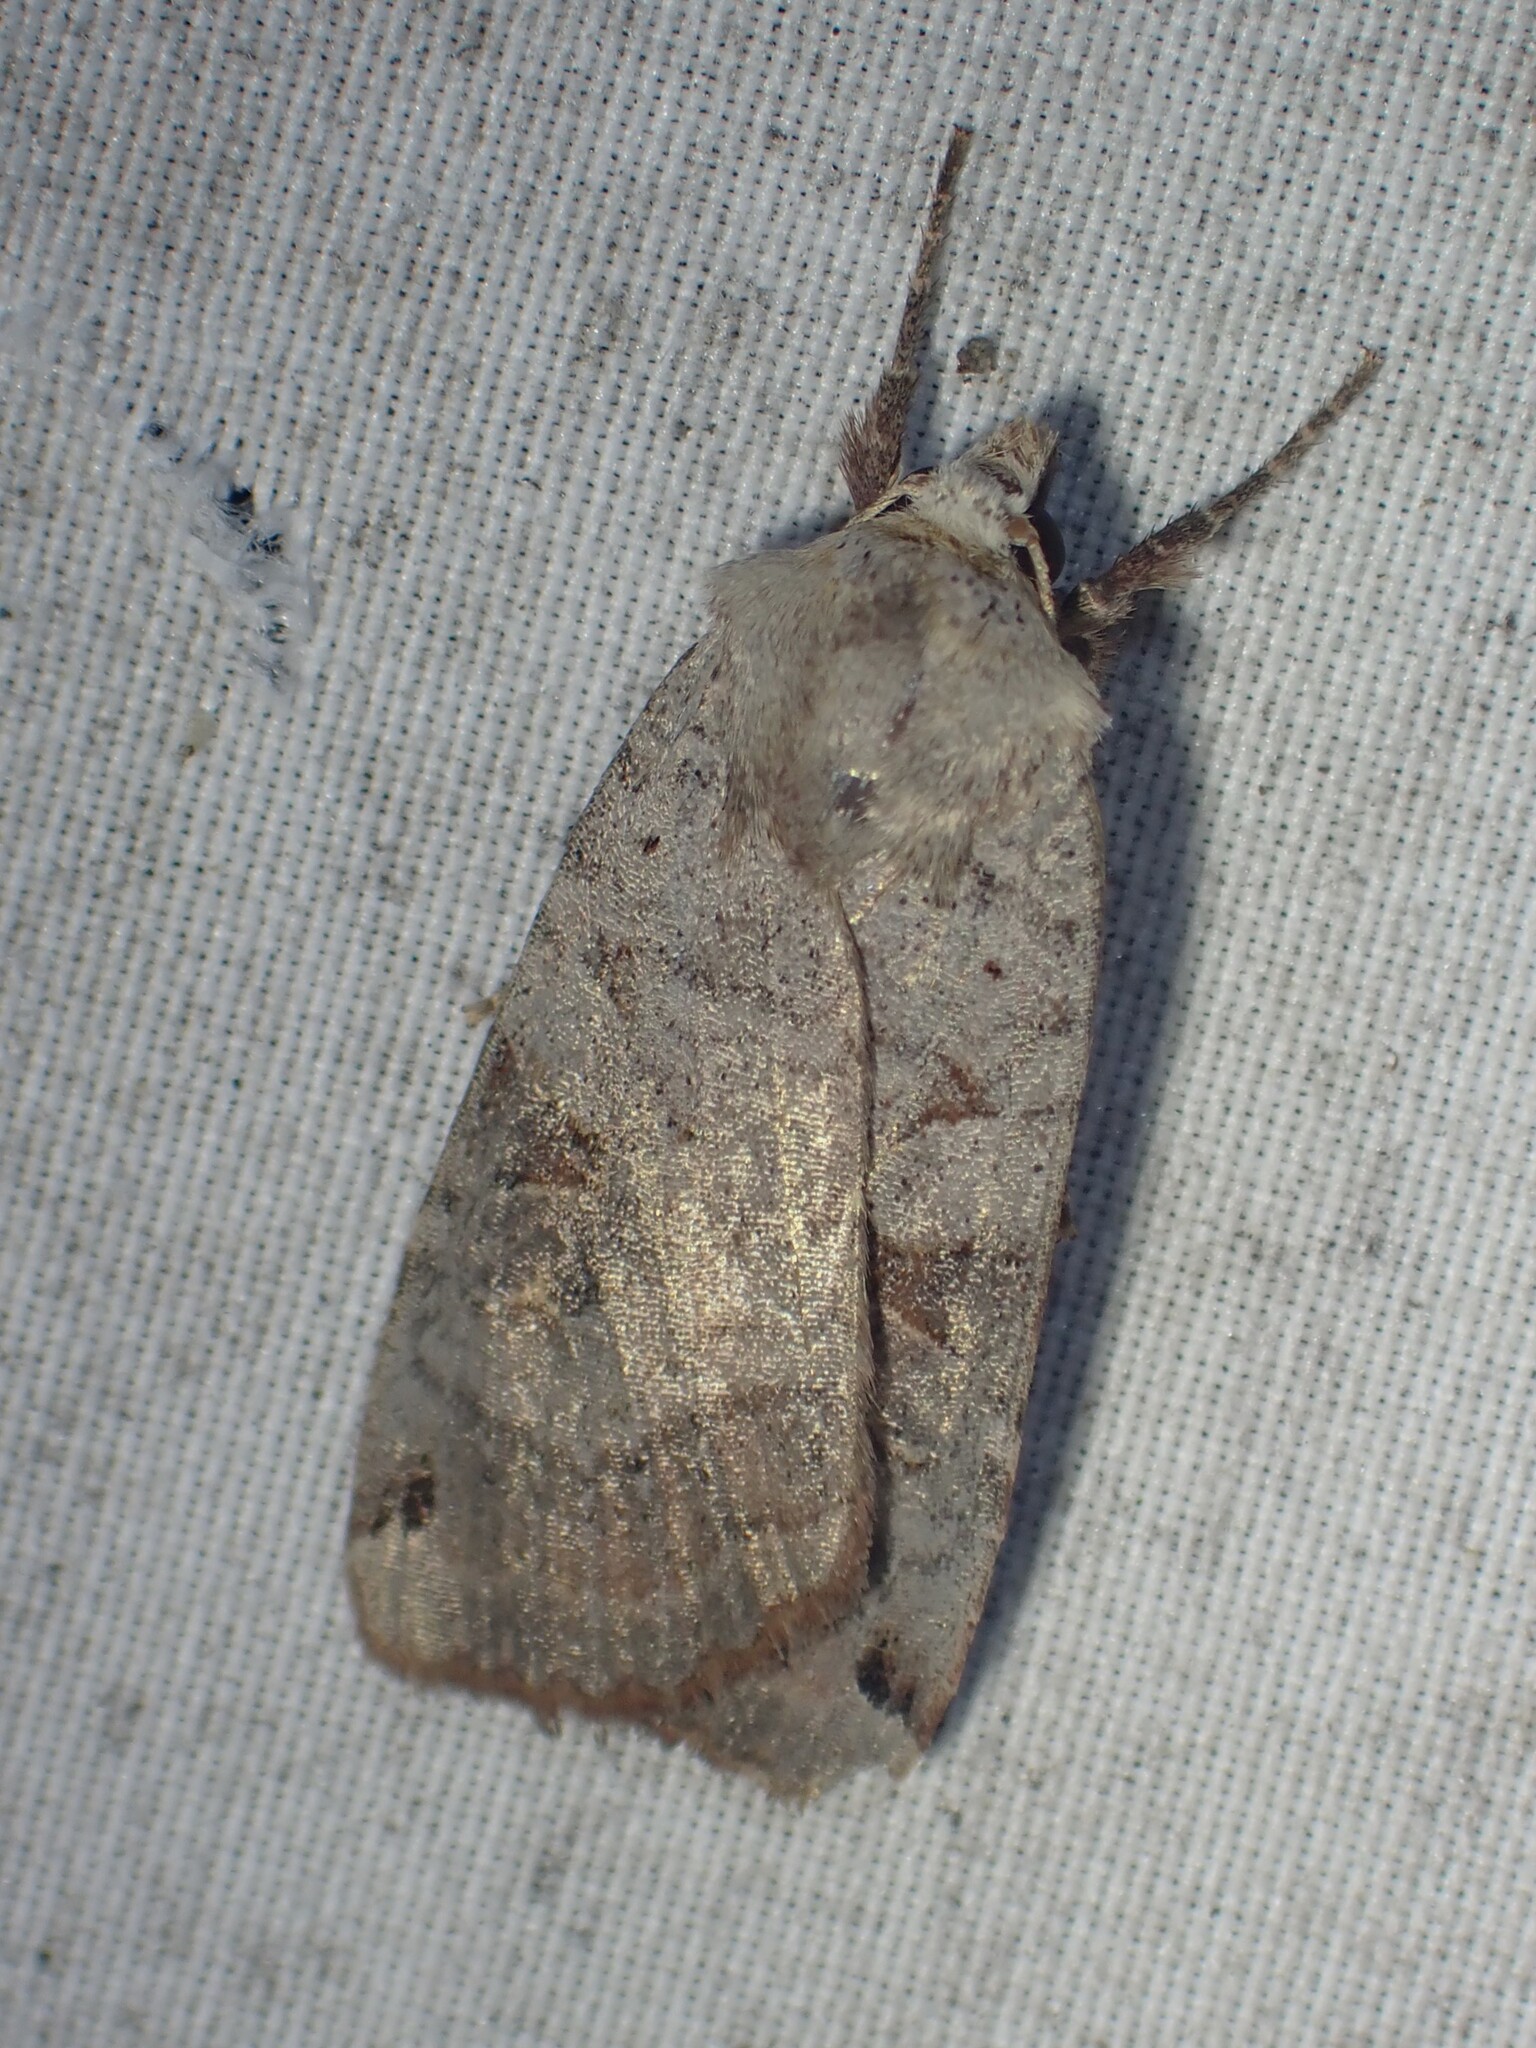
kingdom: Animalia
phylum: Arthropoda
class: Insecta
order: Lepidoptera
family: Noctuidae
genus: Xestia
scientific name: Xestia smithii
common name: Smith's dart
